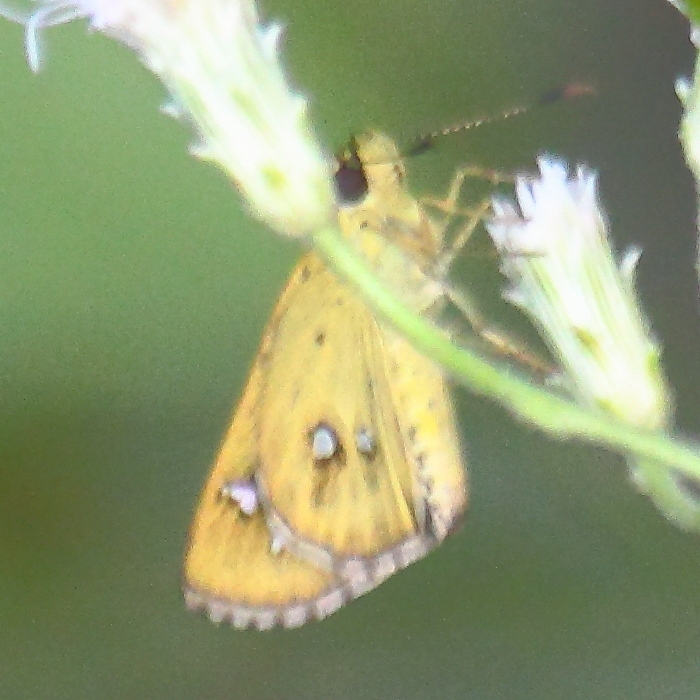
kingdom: Animalia
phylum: Arthropoda
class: Insecta
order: Lepidoptera
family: Hesperiidae
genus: Scobura
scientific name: Scobura isota
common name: Swinhoe's forest bob
